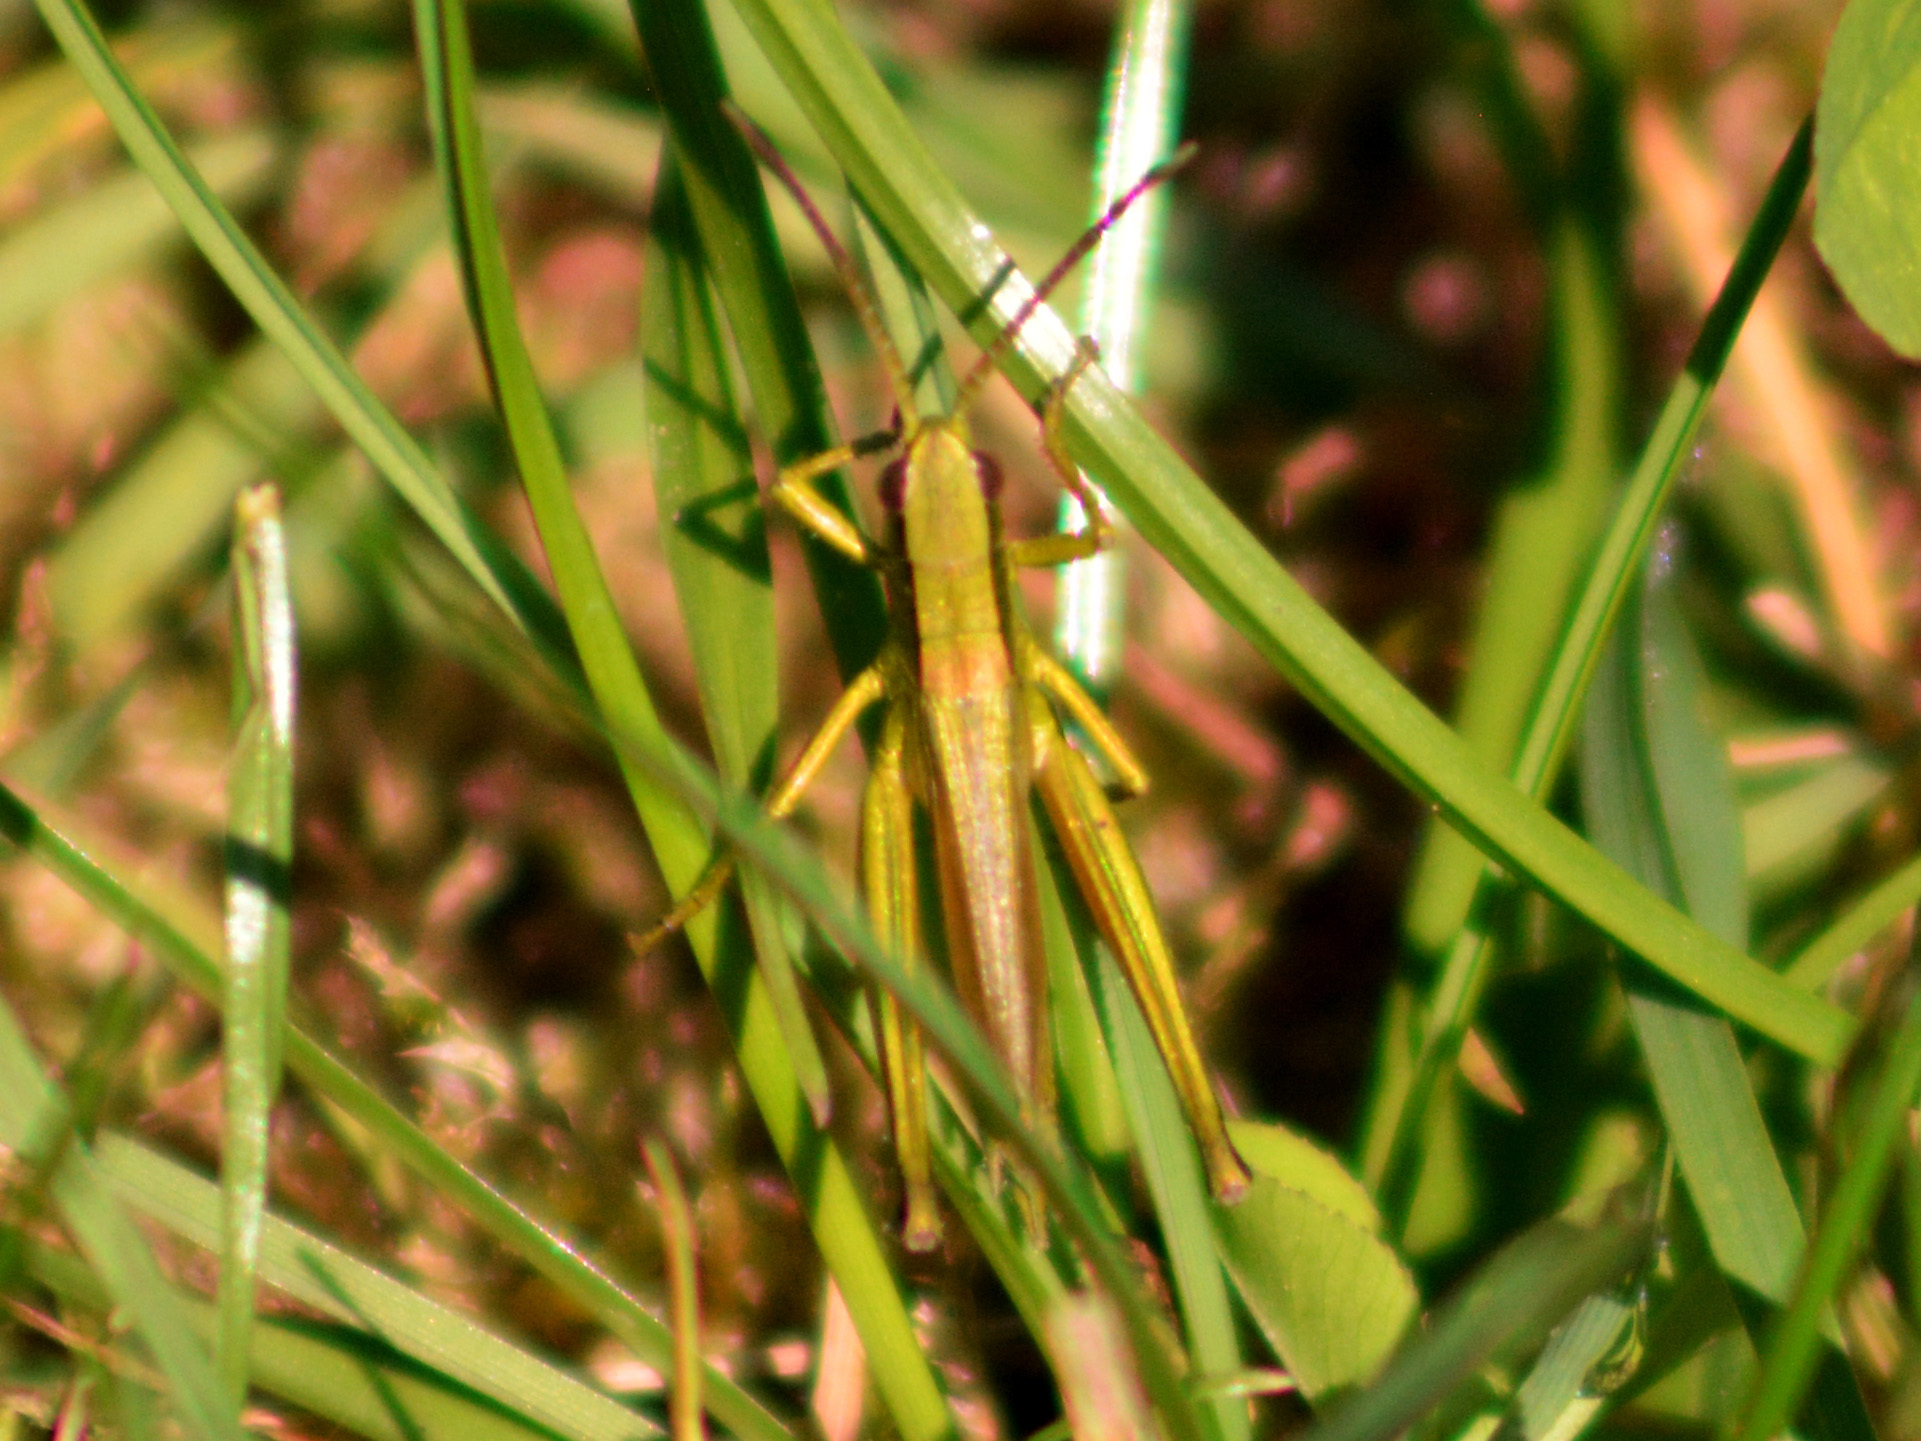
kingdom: Animalia
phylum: Arthropoda
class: Insecta
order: Orthoptera
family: Acrididae
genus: Chrysochraon
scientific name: Chrysochraon dispar
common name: Large gold grasshopper
